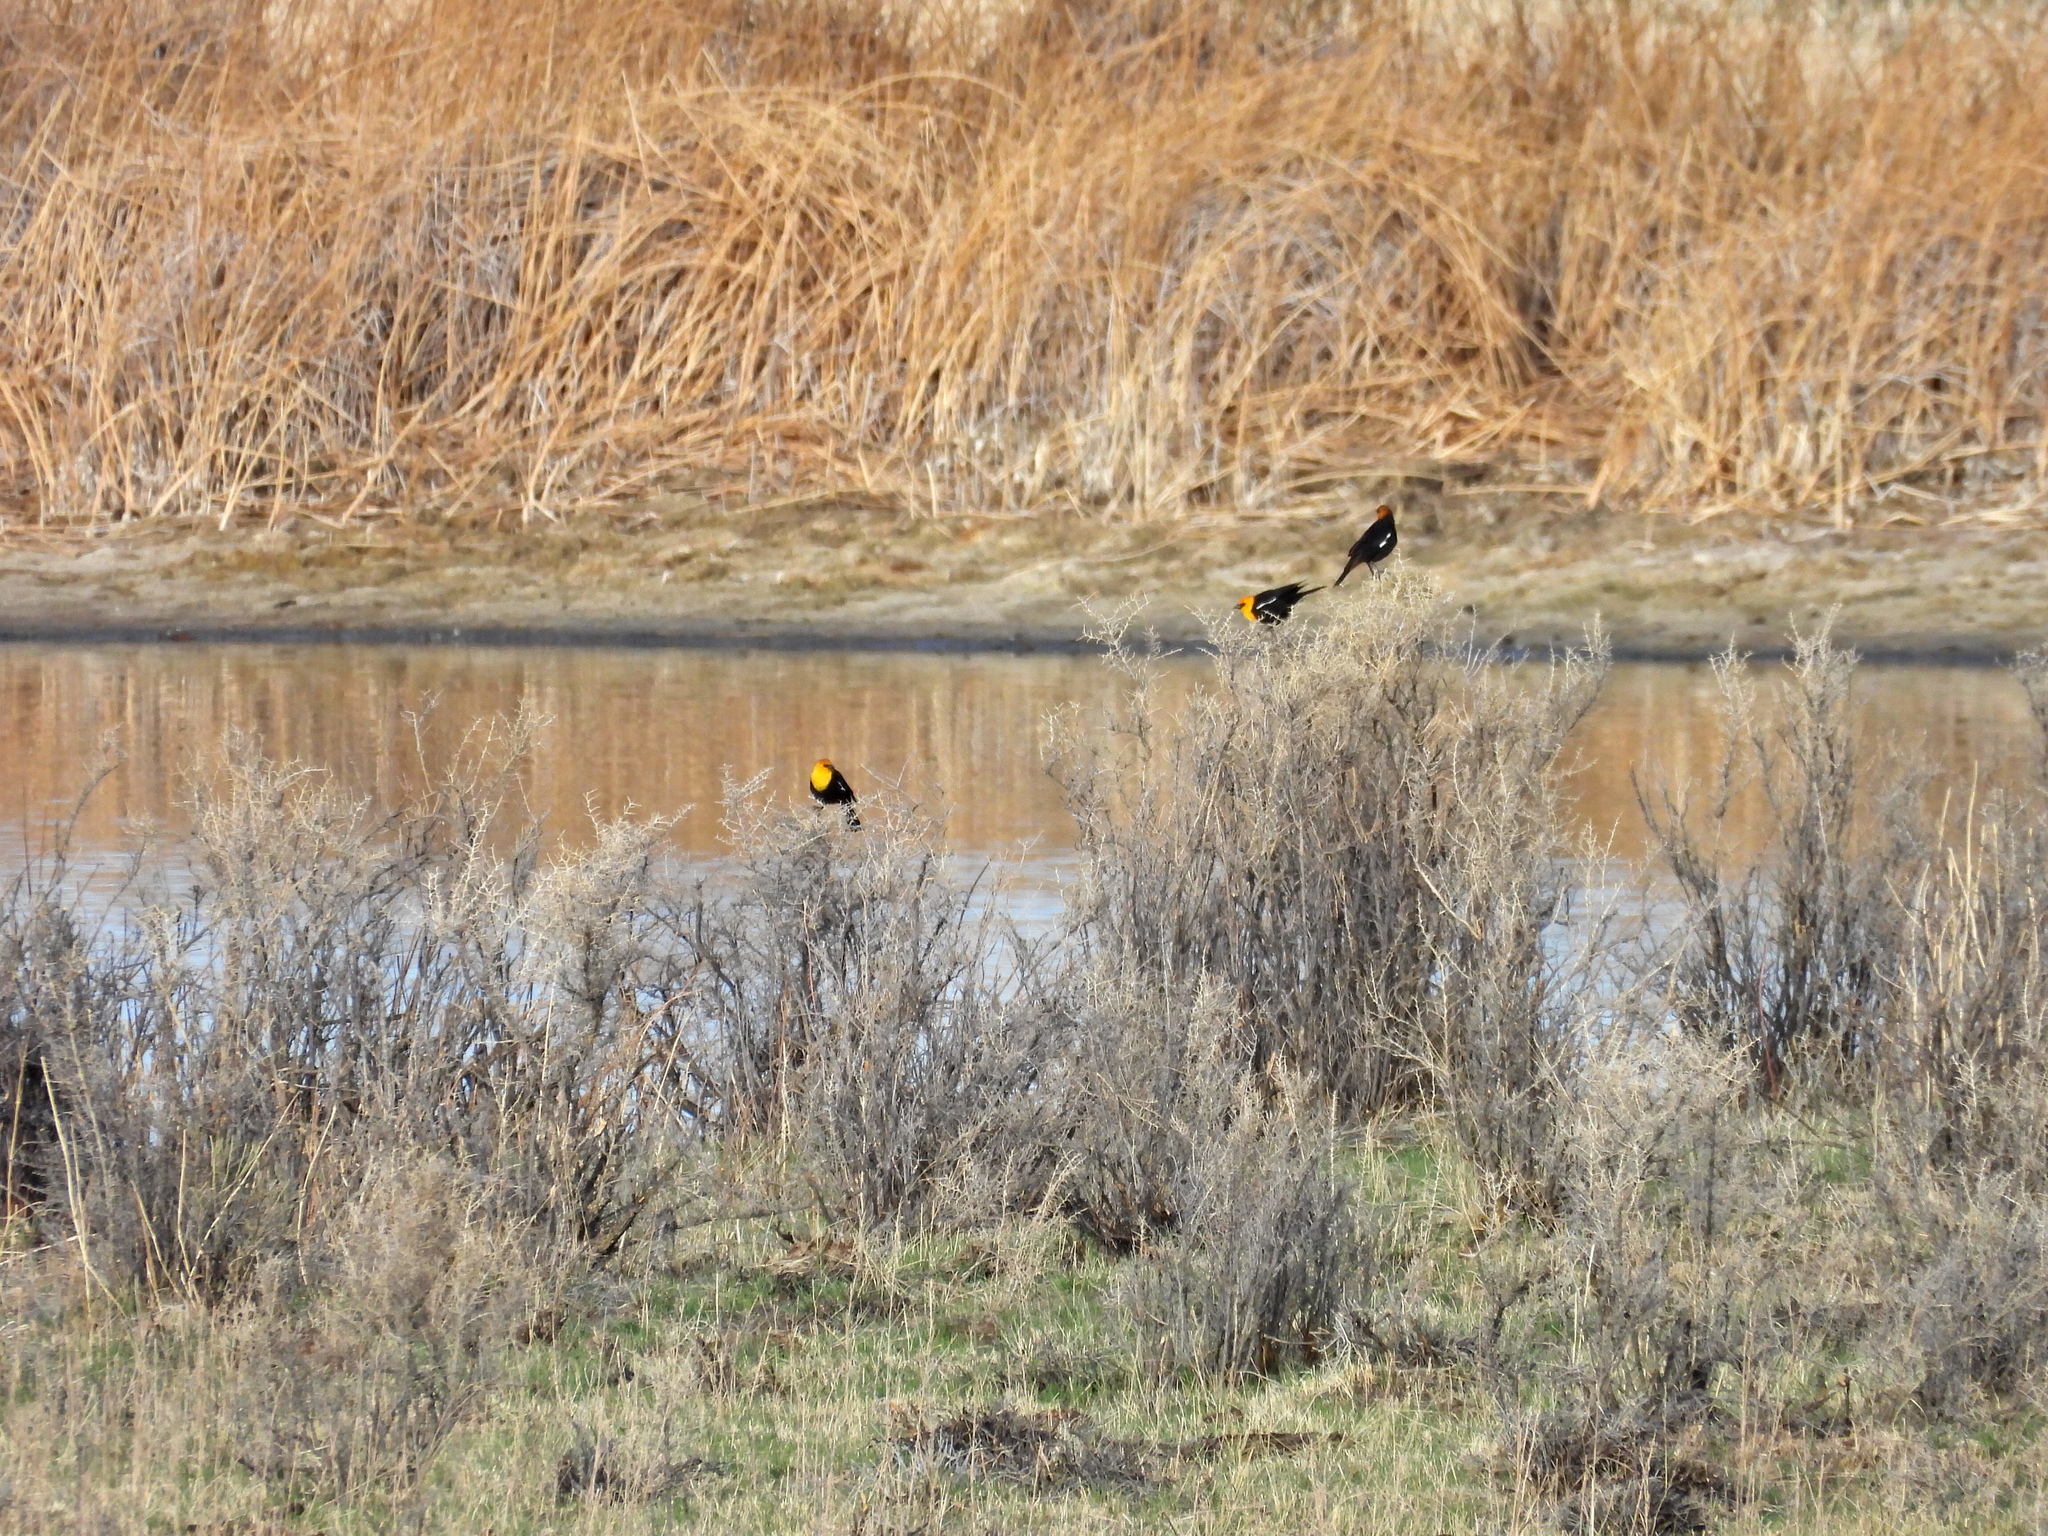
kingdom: Animalia
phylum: Chordata
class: Aves
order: Passeriformes
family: Icteridae
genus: Xanthocephalus
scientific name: Xanthocephalus xanthocephalus
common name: Yellow-headed blackbird
